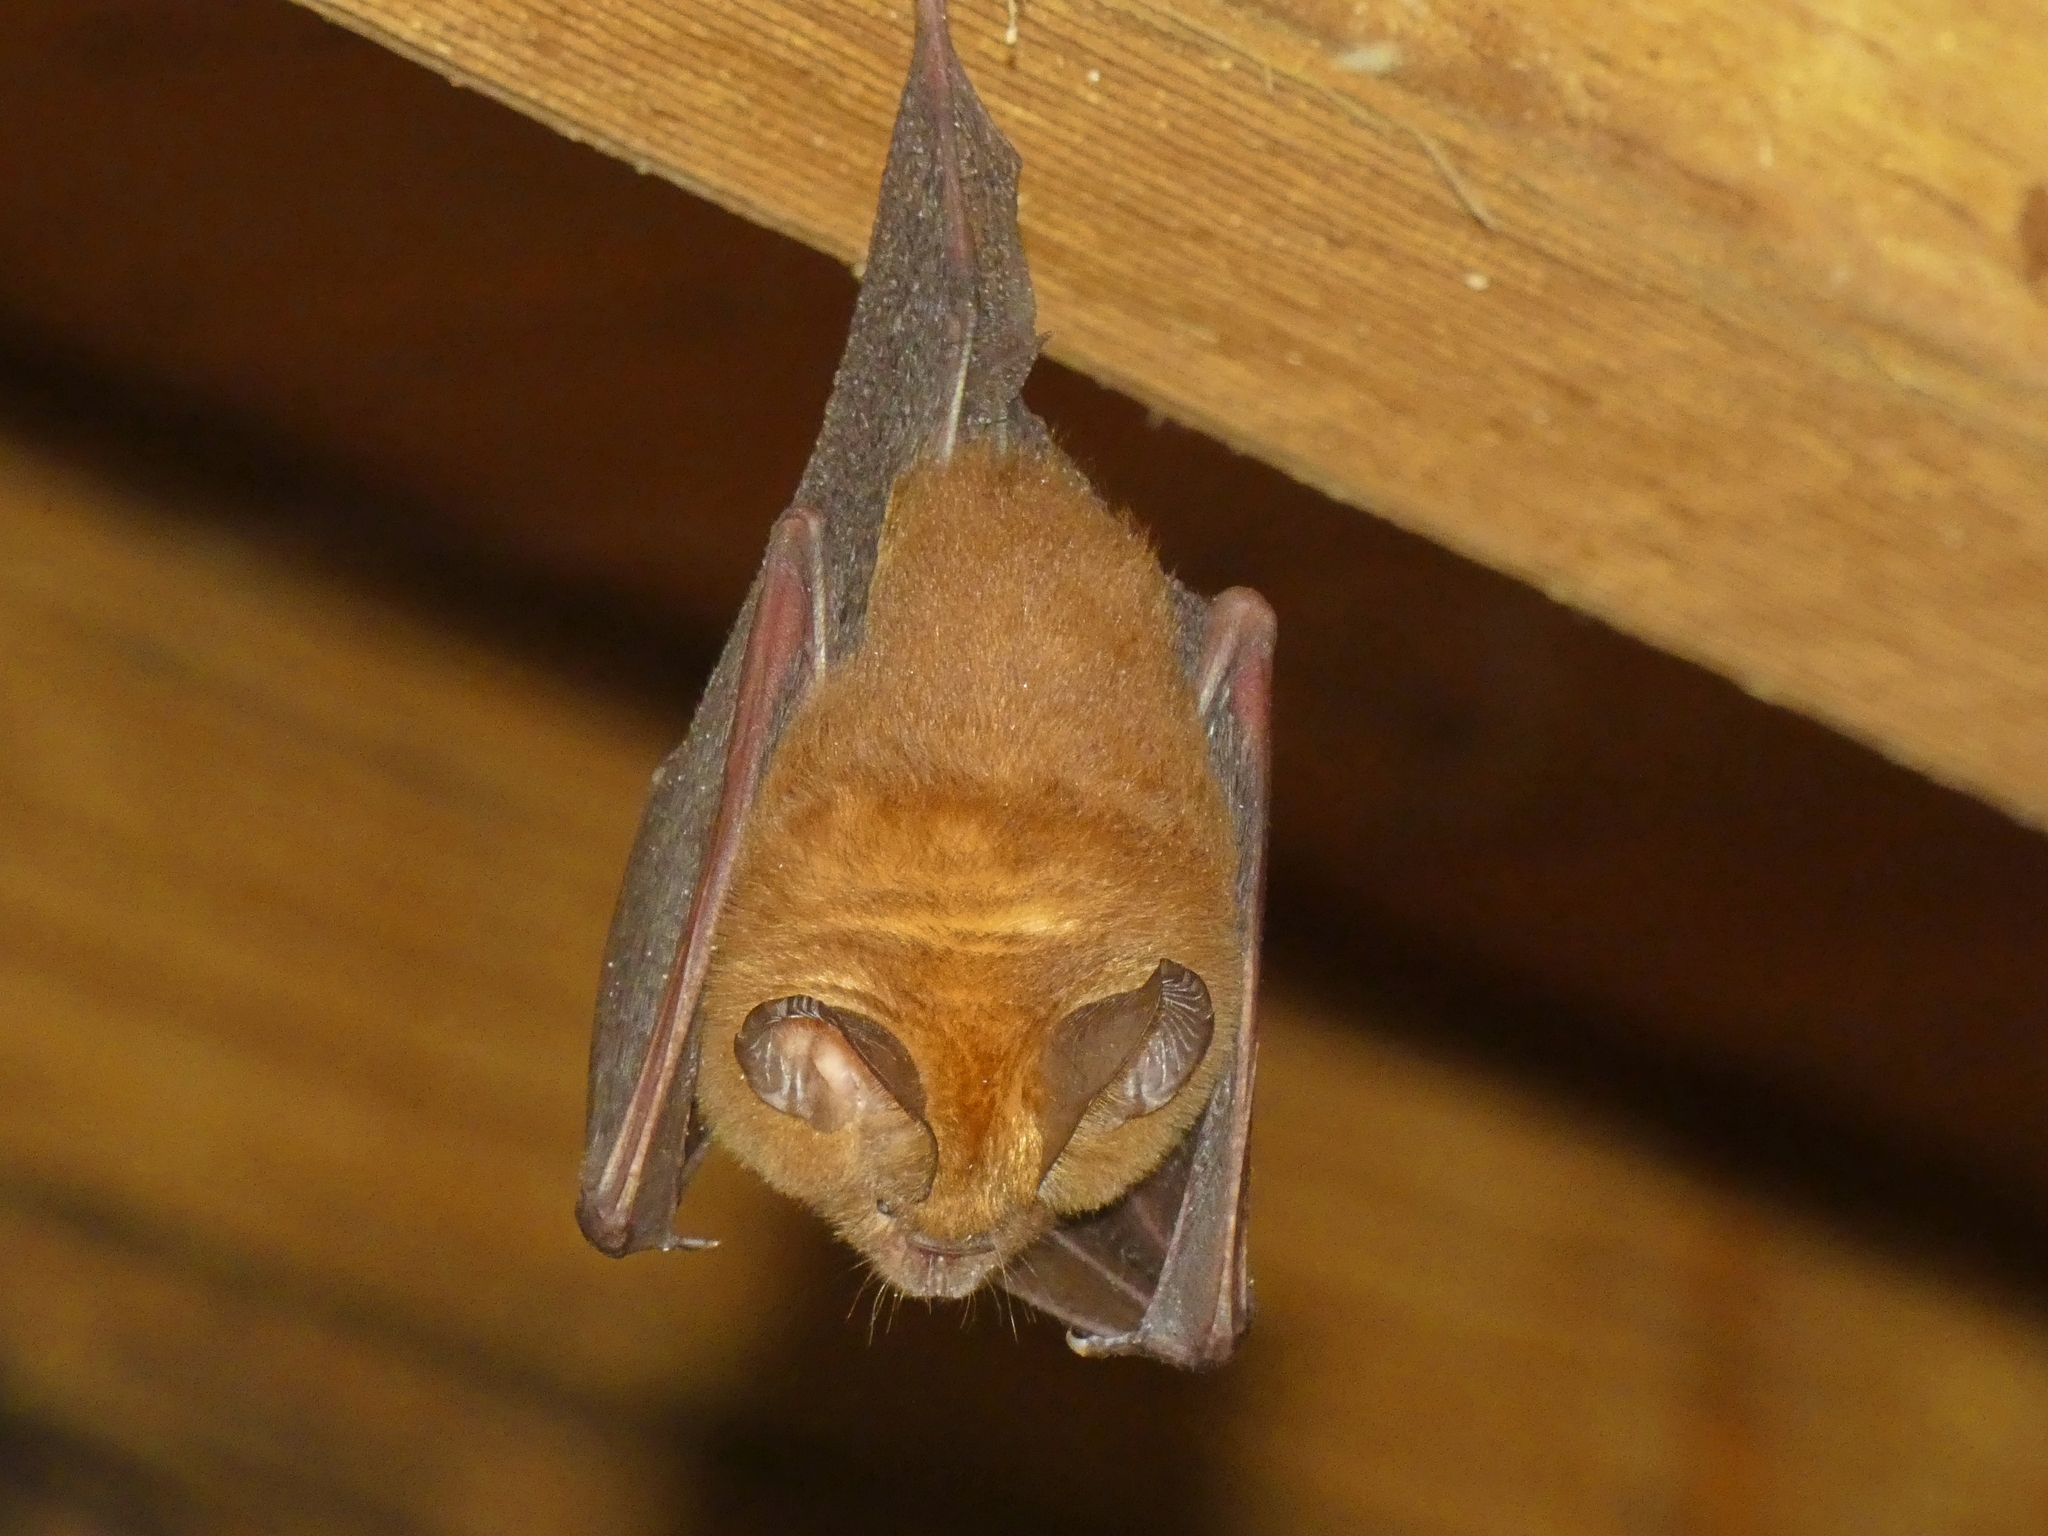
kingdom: Animalia
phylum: Chordata
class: Mammalia
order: Chiroptera
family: Hipposideridae
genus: Hipposideros
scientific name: Hipposideros ater
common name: Dusky leaf-nosed bat
